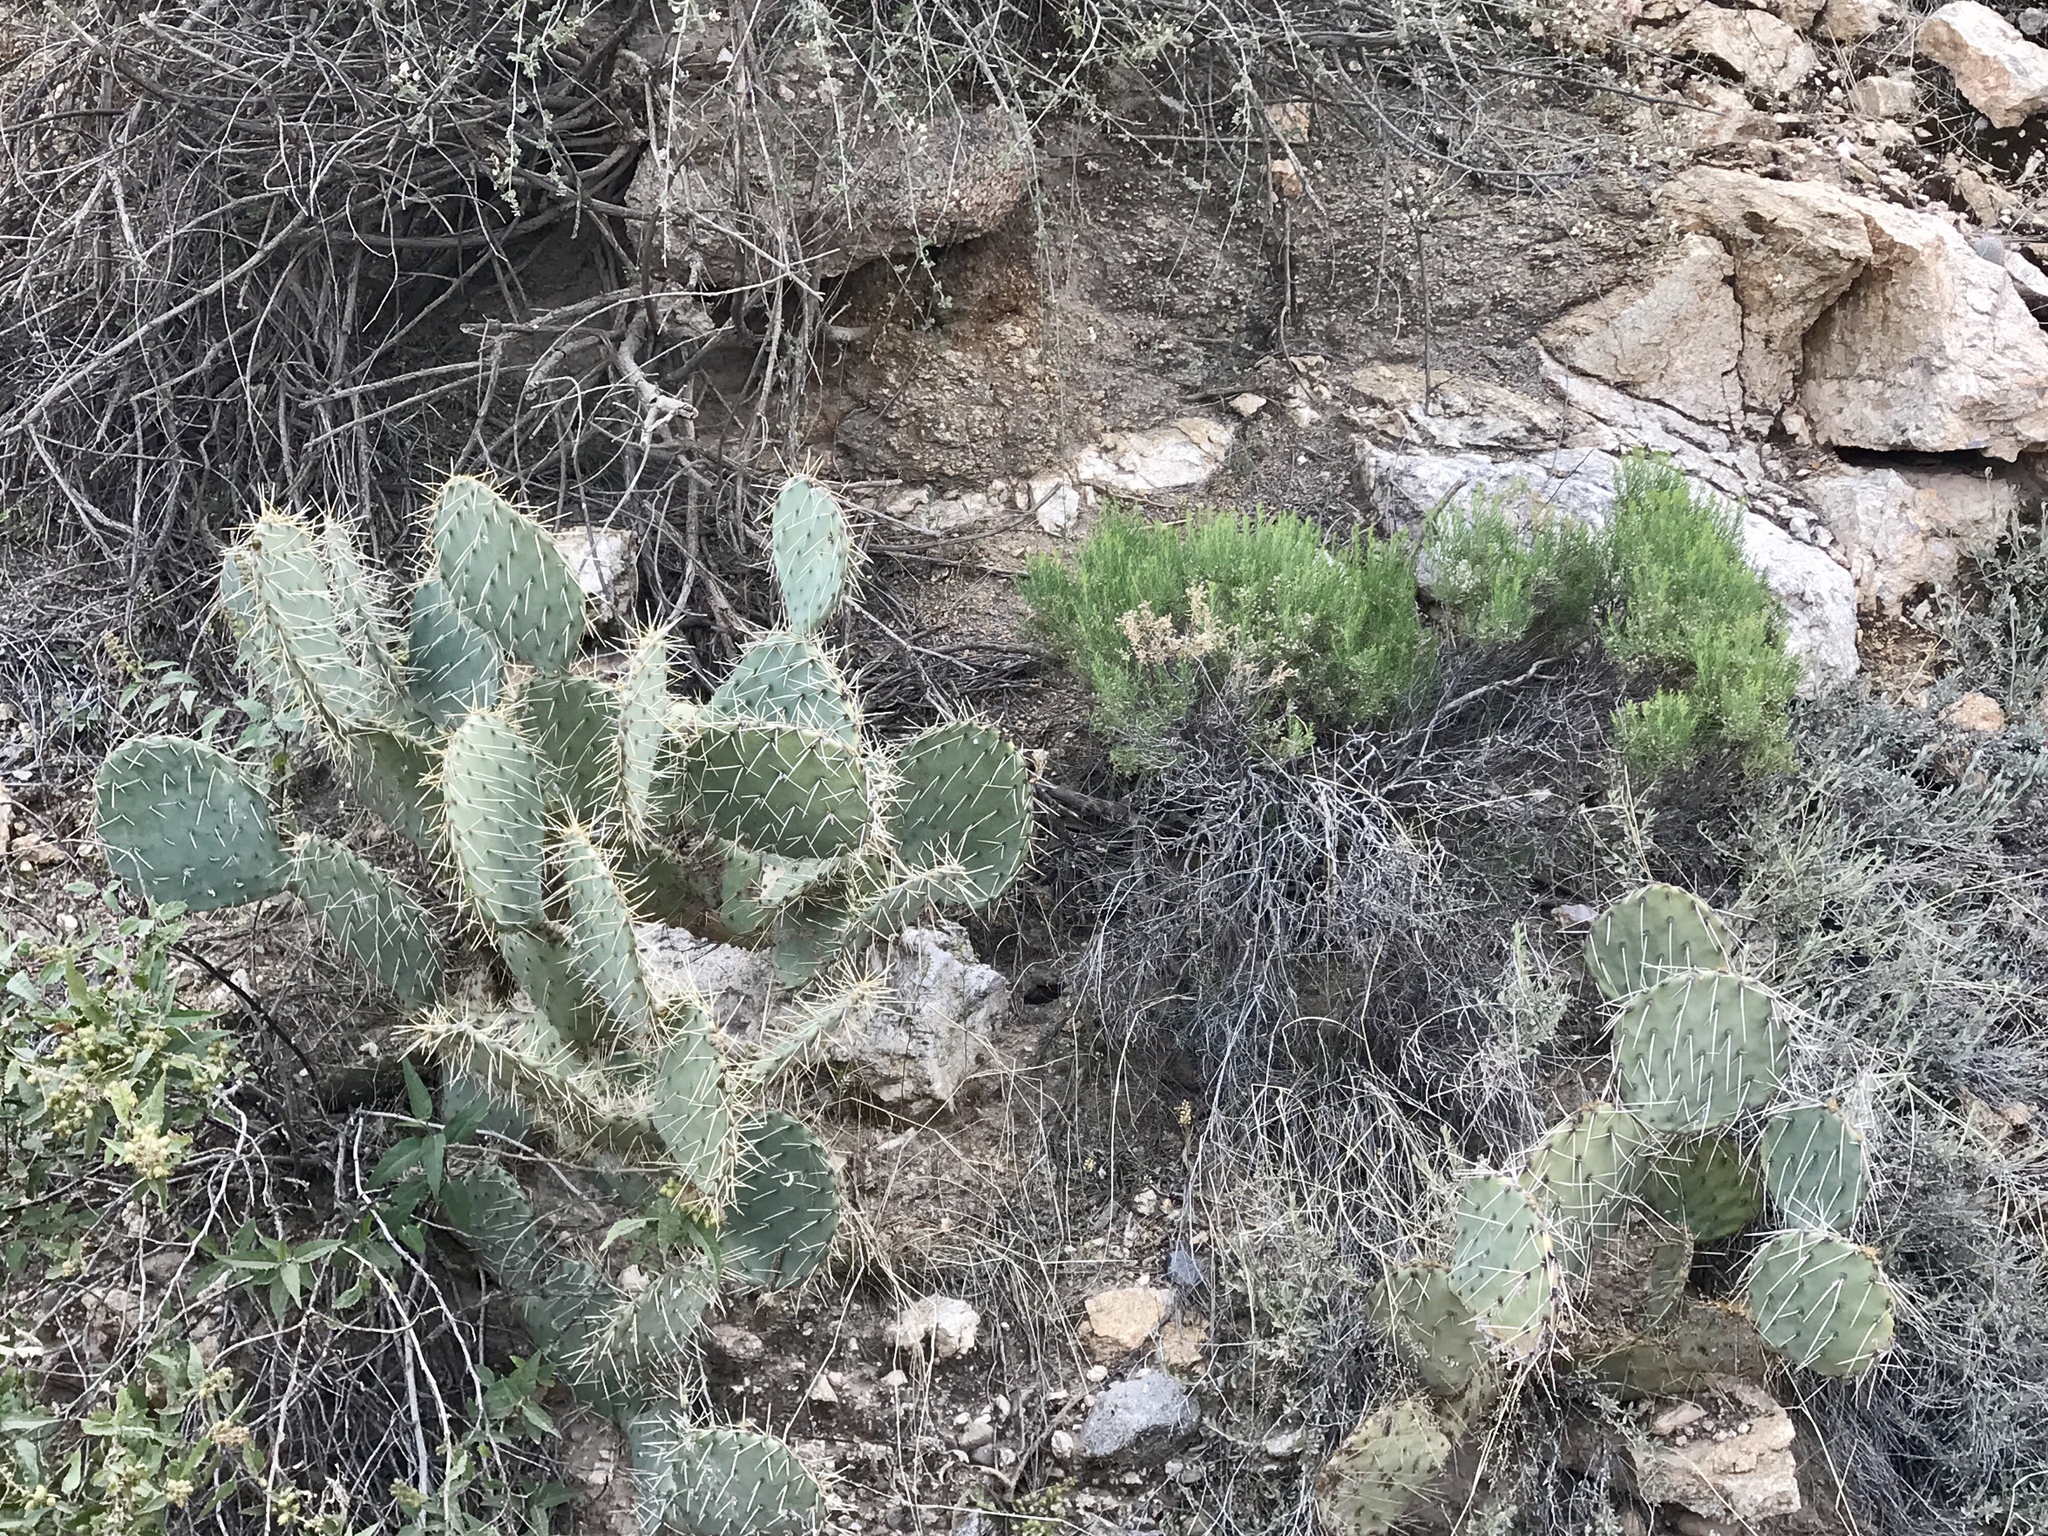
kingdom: Plantae
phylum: Tracheophyta
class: Magnoliopsida
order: Asterales
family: Asteraceae
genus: Ericameria
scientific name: Ericameria laricifolia
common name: Turpentine-bush
